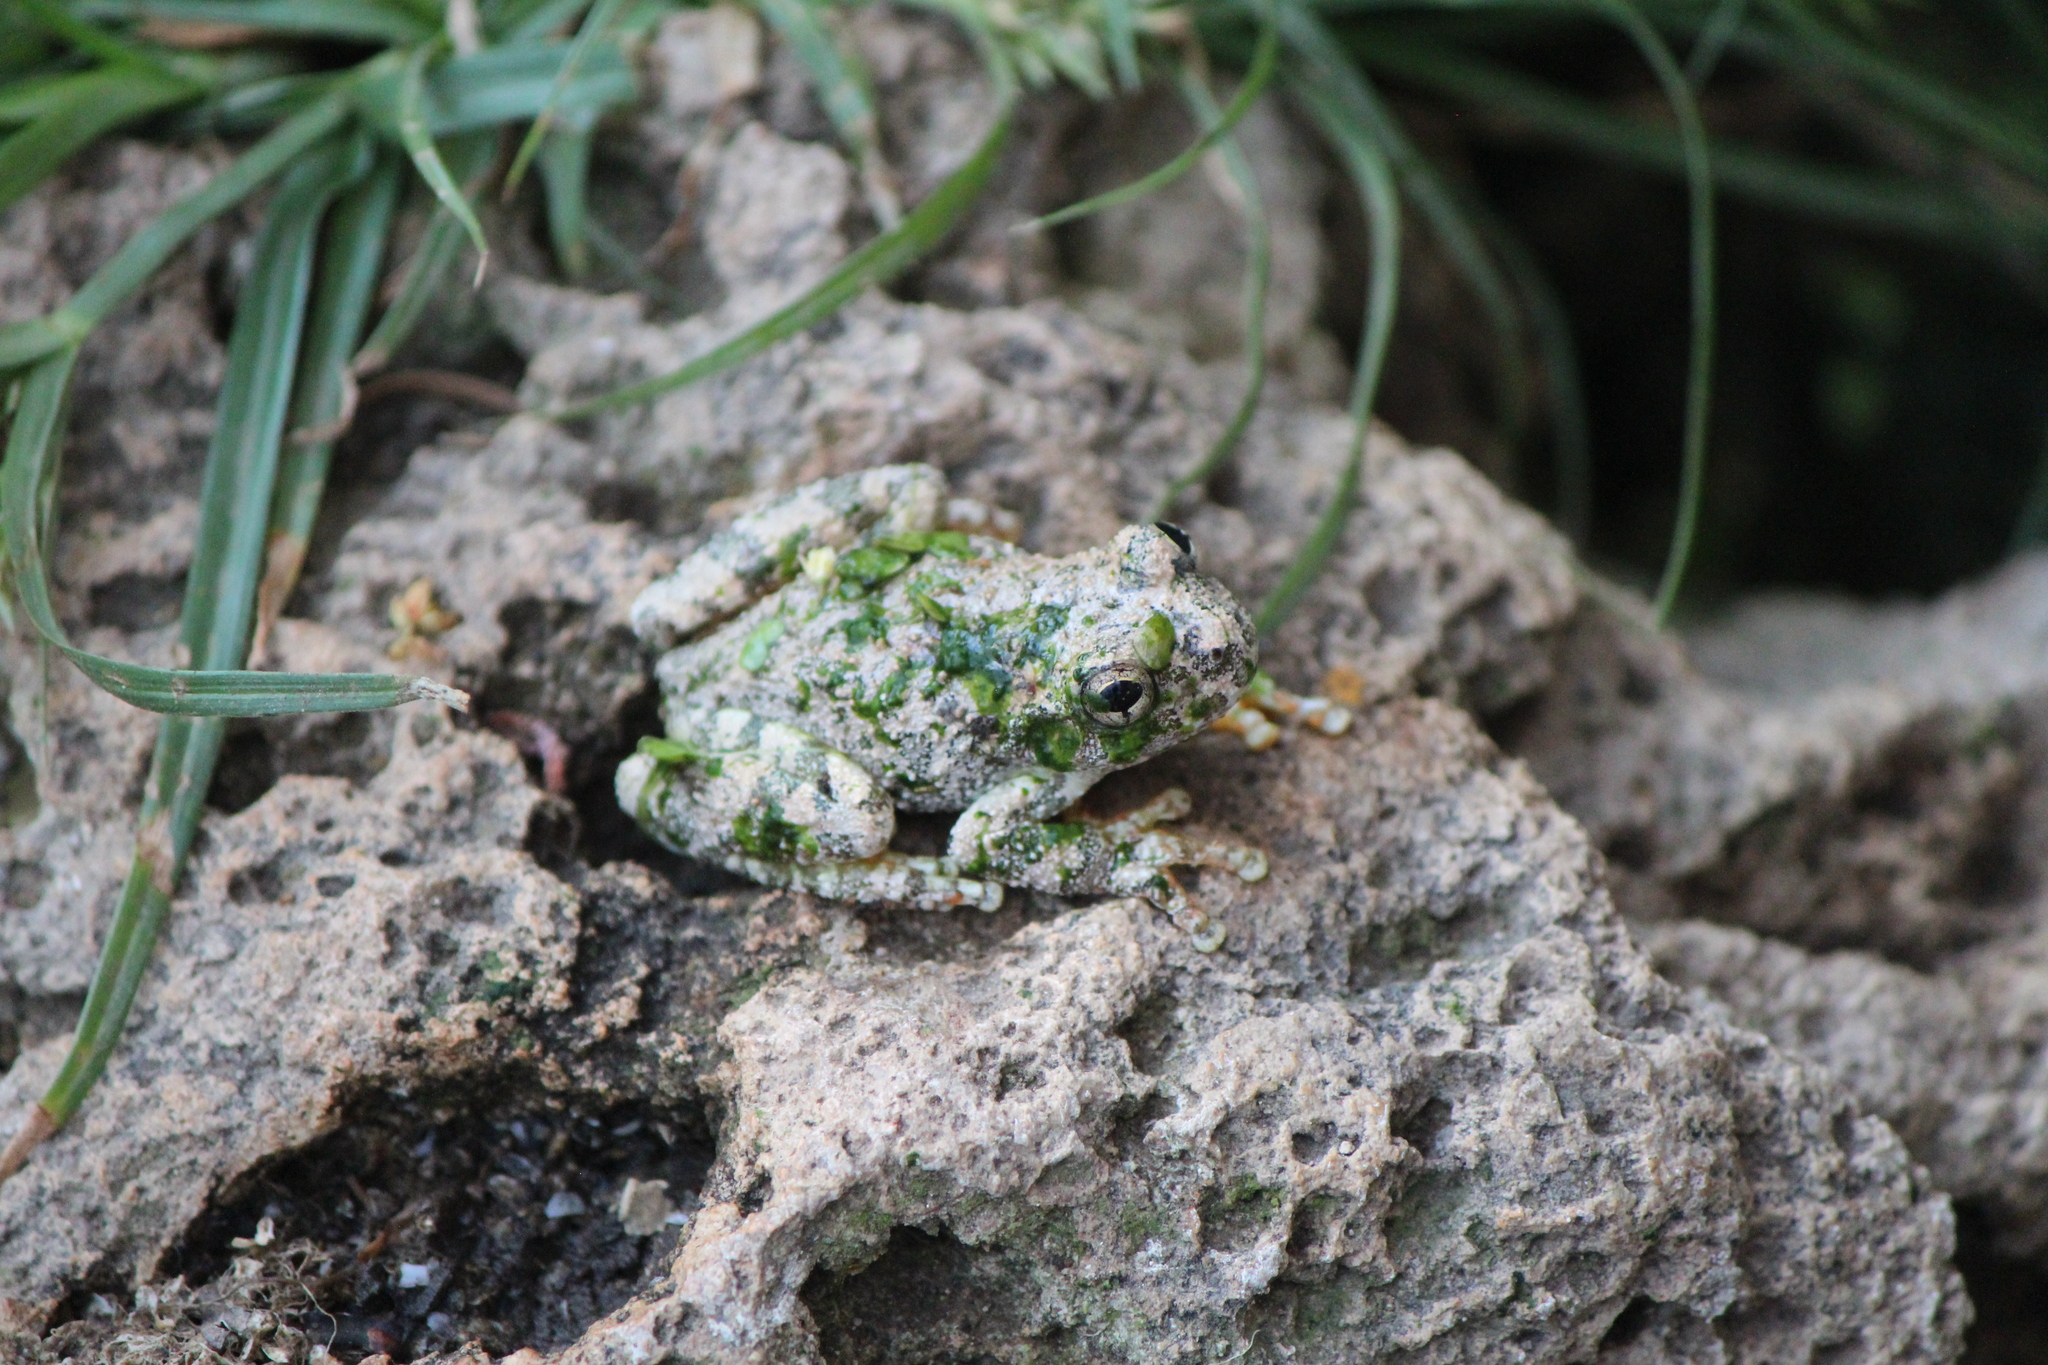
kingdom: Animalia
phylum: Chordata
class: Amphibia
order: Anura
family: Hylidae
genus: Dryophytes
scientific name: Dryophytes arenicolor
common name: Canyon treefrog
